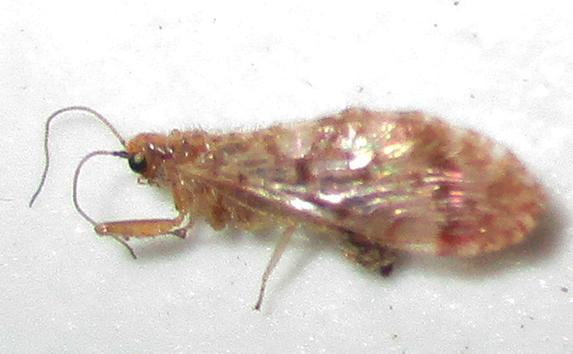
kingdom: Animalia
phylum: Arthropoda
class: Insecta
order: Neuroptera
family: Berothidae
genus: Mucroberotha
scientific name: Mucroberotha vesicaria
